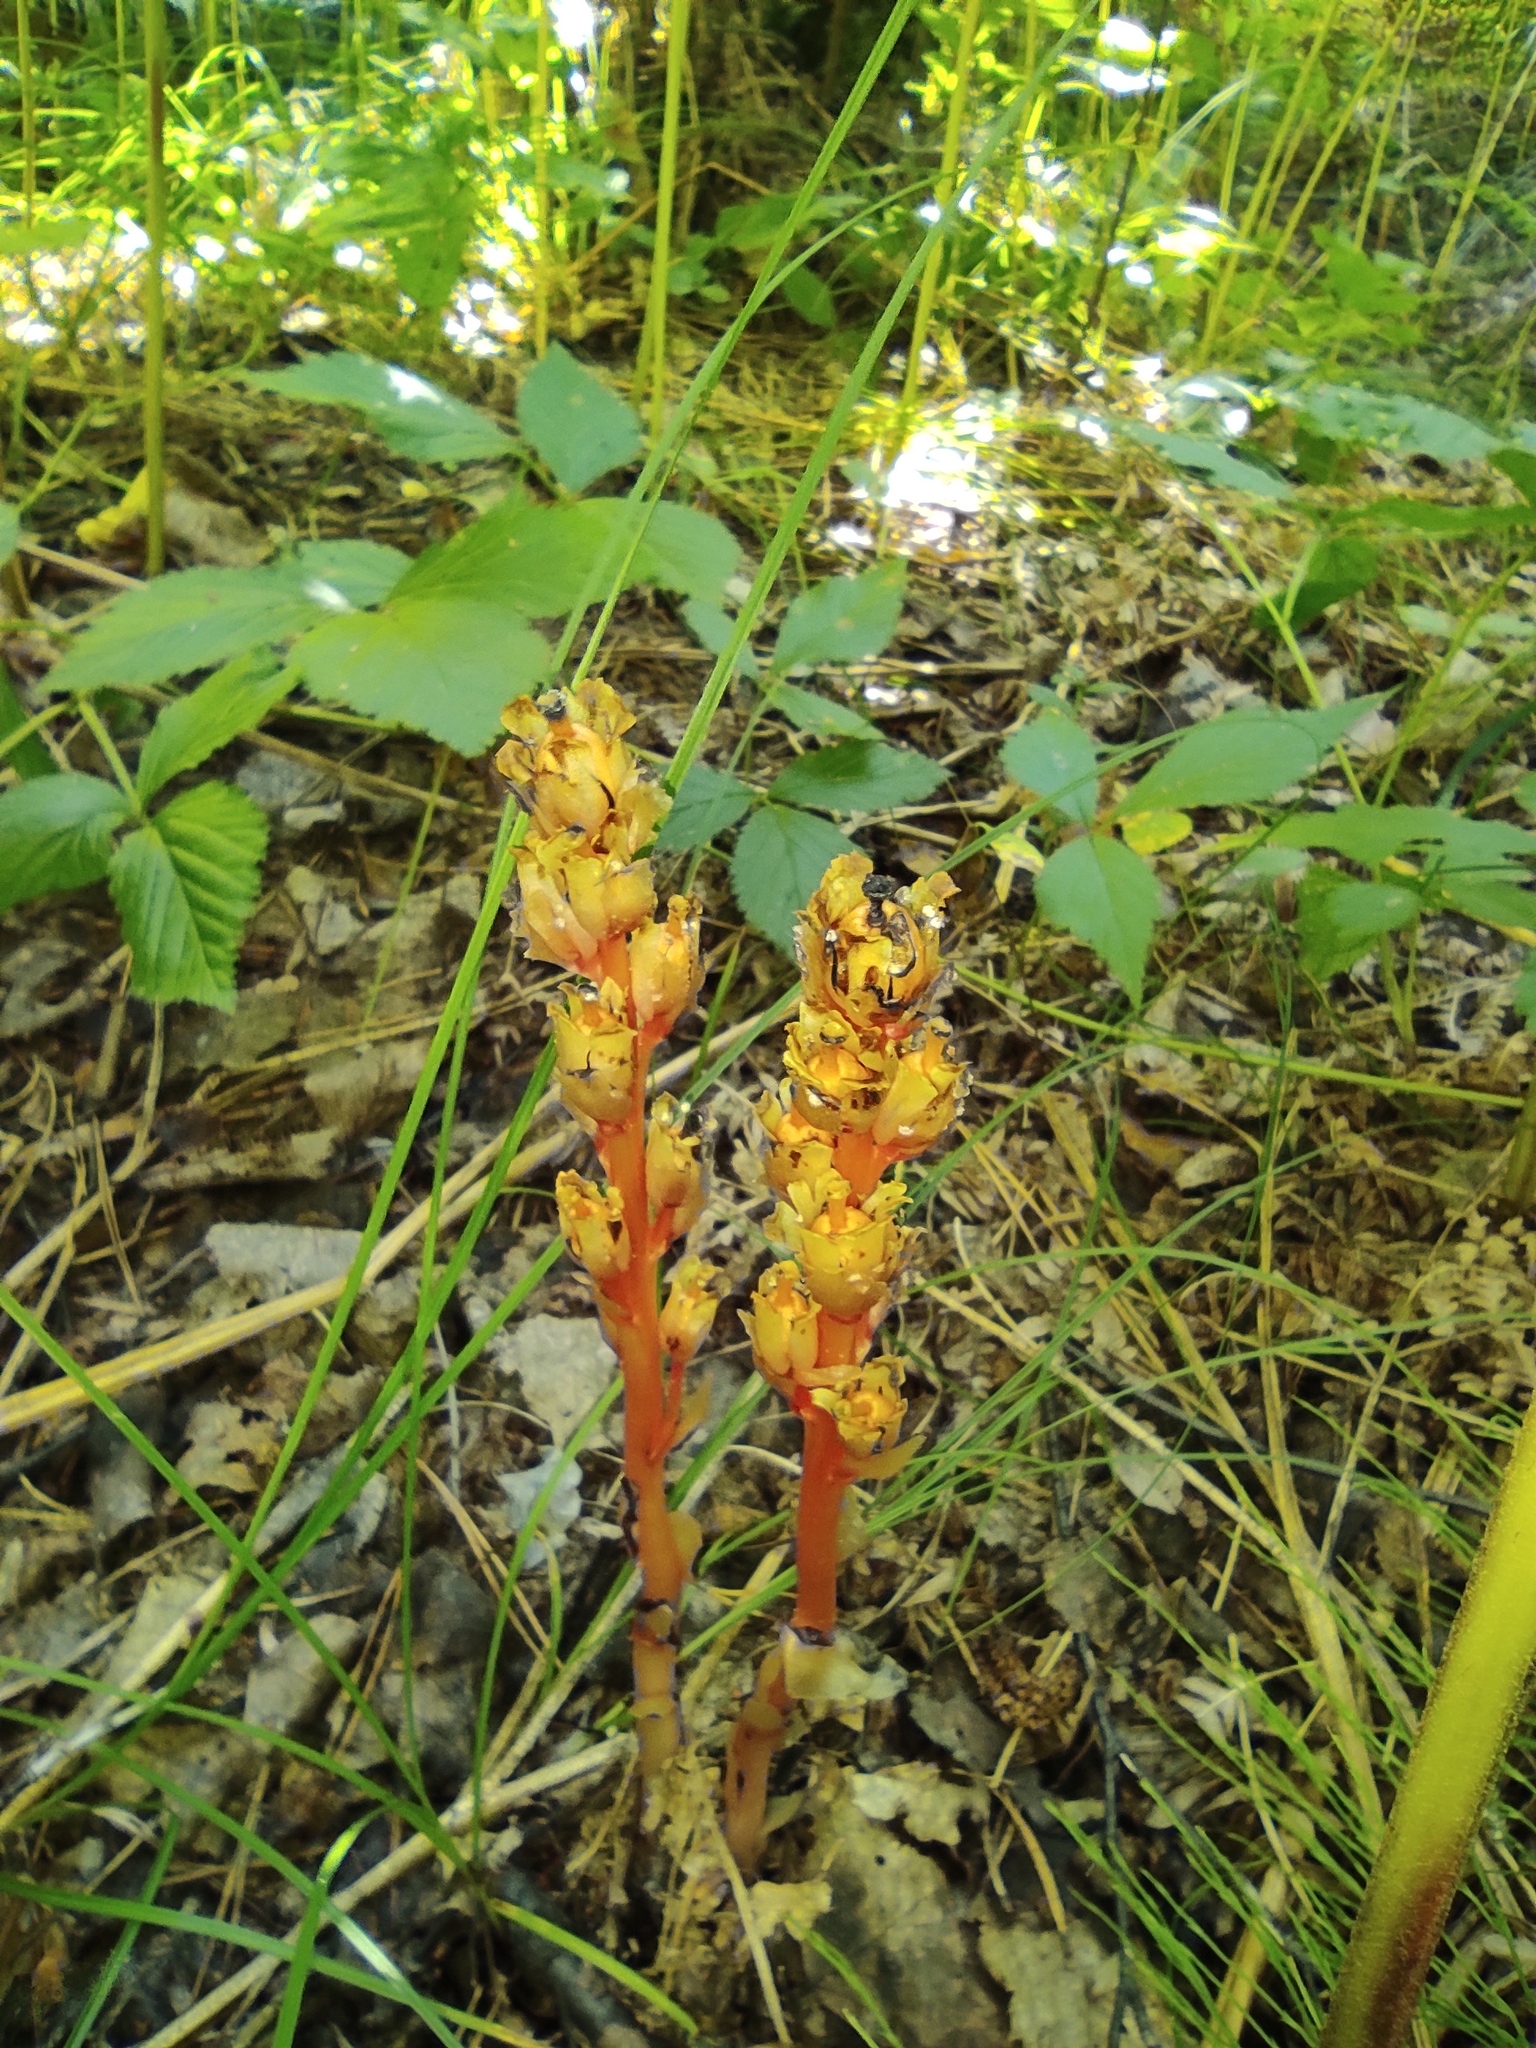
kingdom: Plantae
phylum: Tracheophyta
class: Magnoliopsida
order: Ericales
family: Ericaceae
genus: Hypopitys
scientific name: Hypopitys monotropa
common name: Yellow bird's-nest
